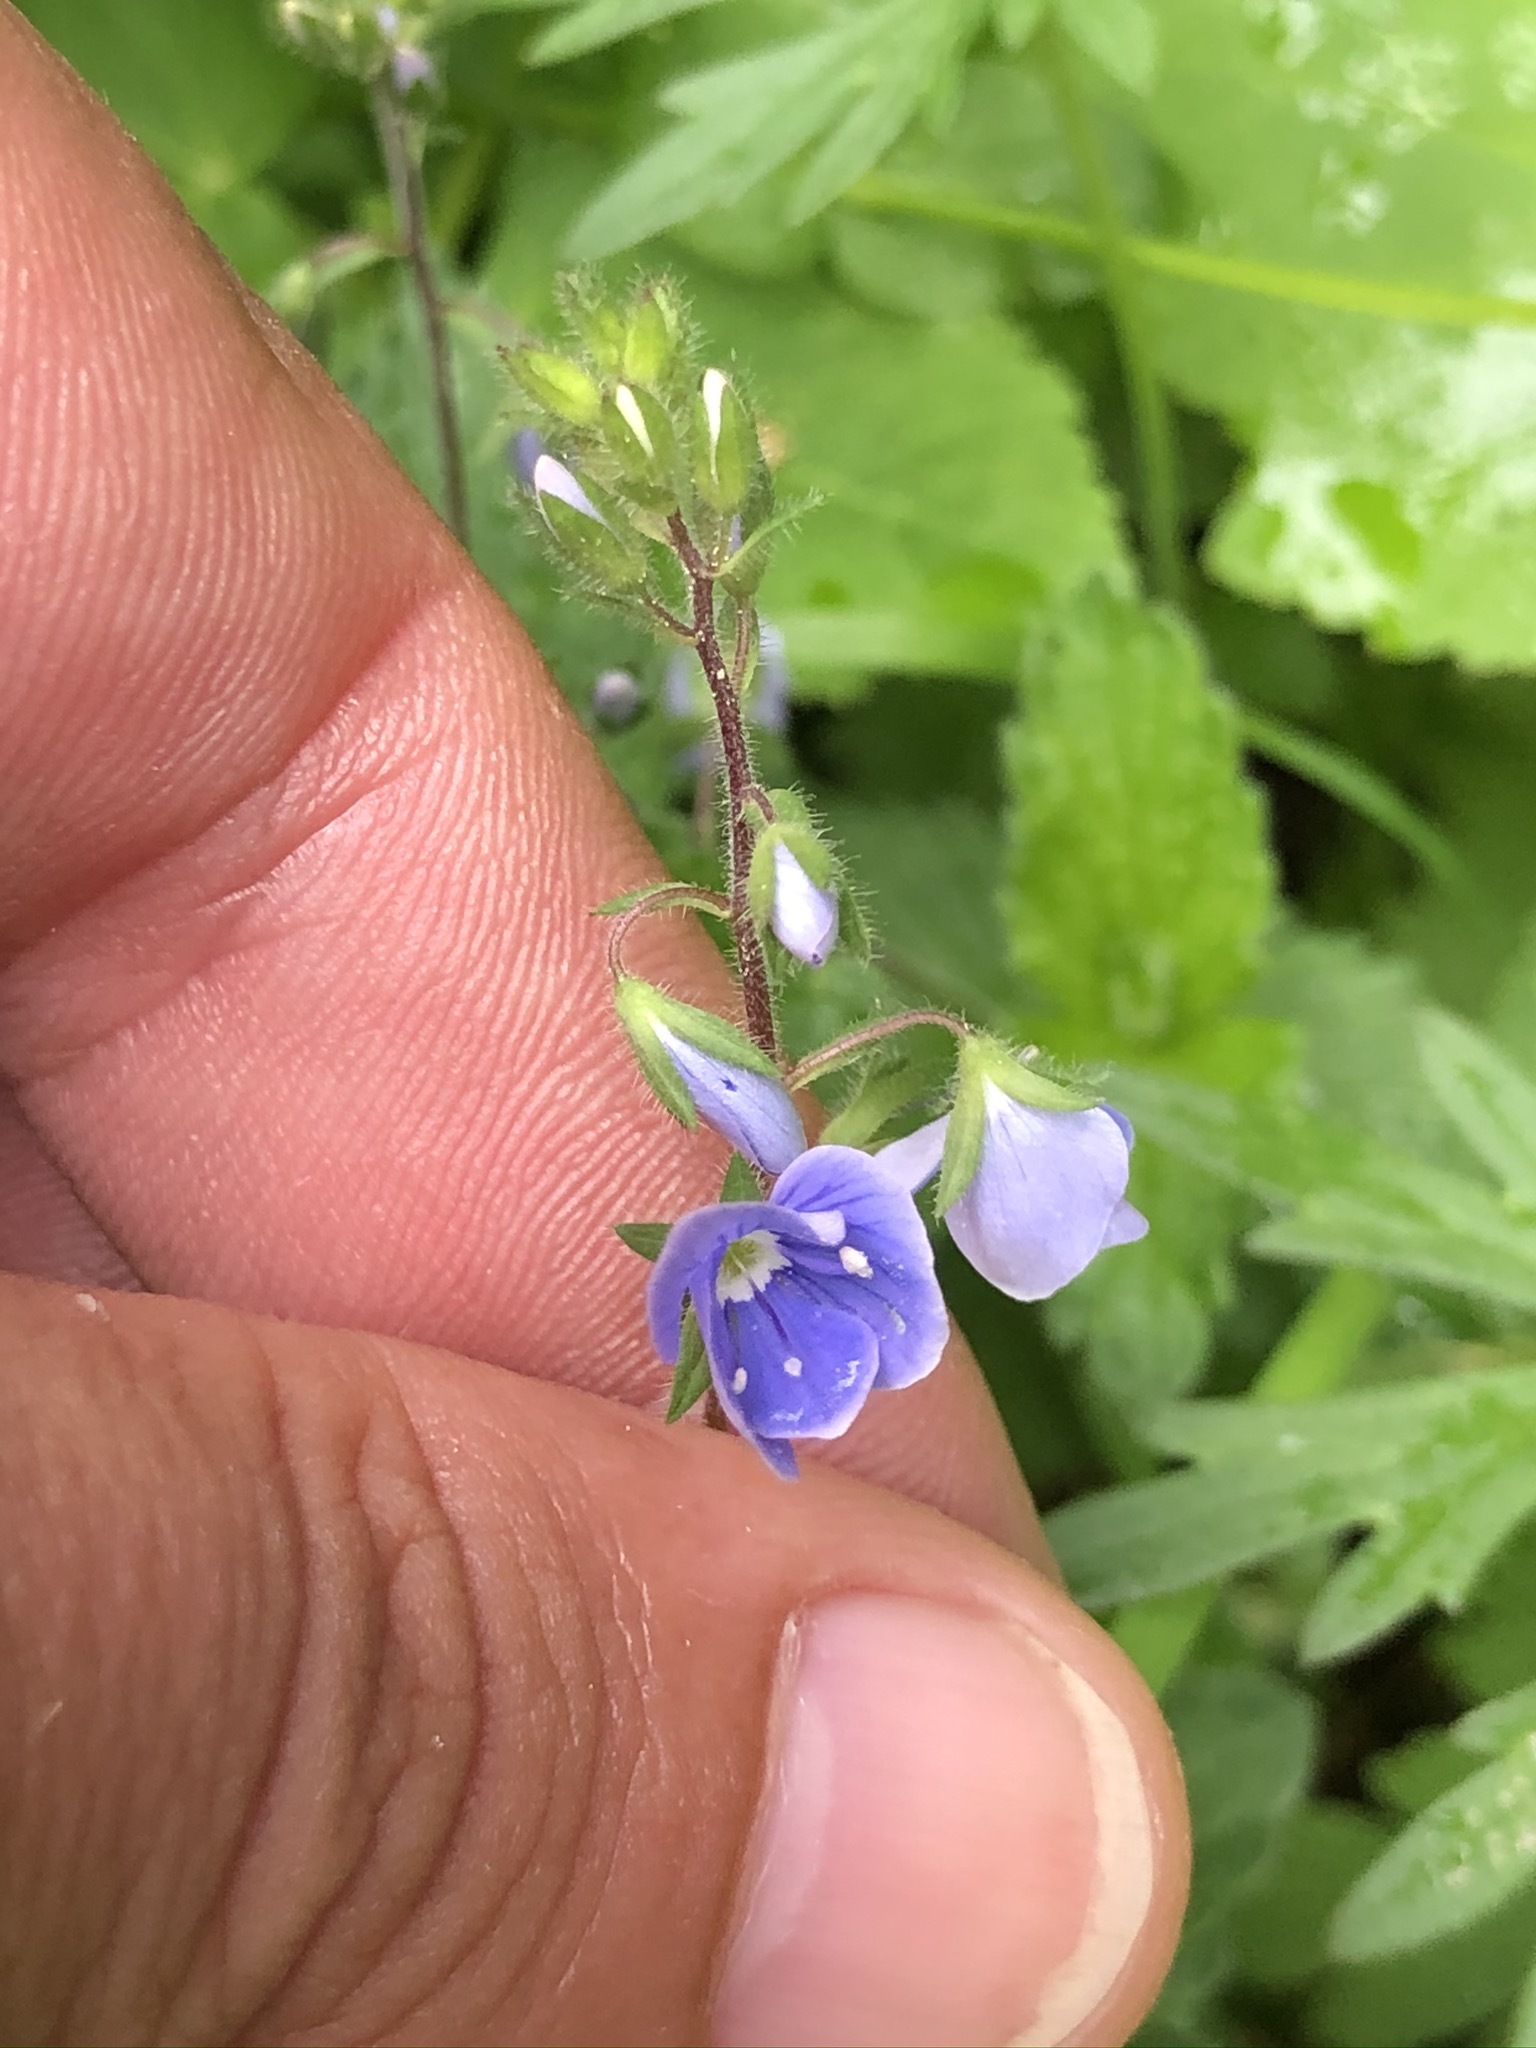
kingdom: Plantae
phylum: Tracheophyta
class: Magnoliopsida
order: Lamiales
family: Plantaginaceae
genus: Veronica
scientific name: Veronica chamaedrys
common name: Germander speedwell
